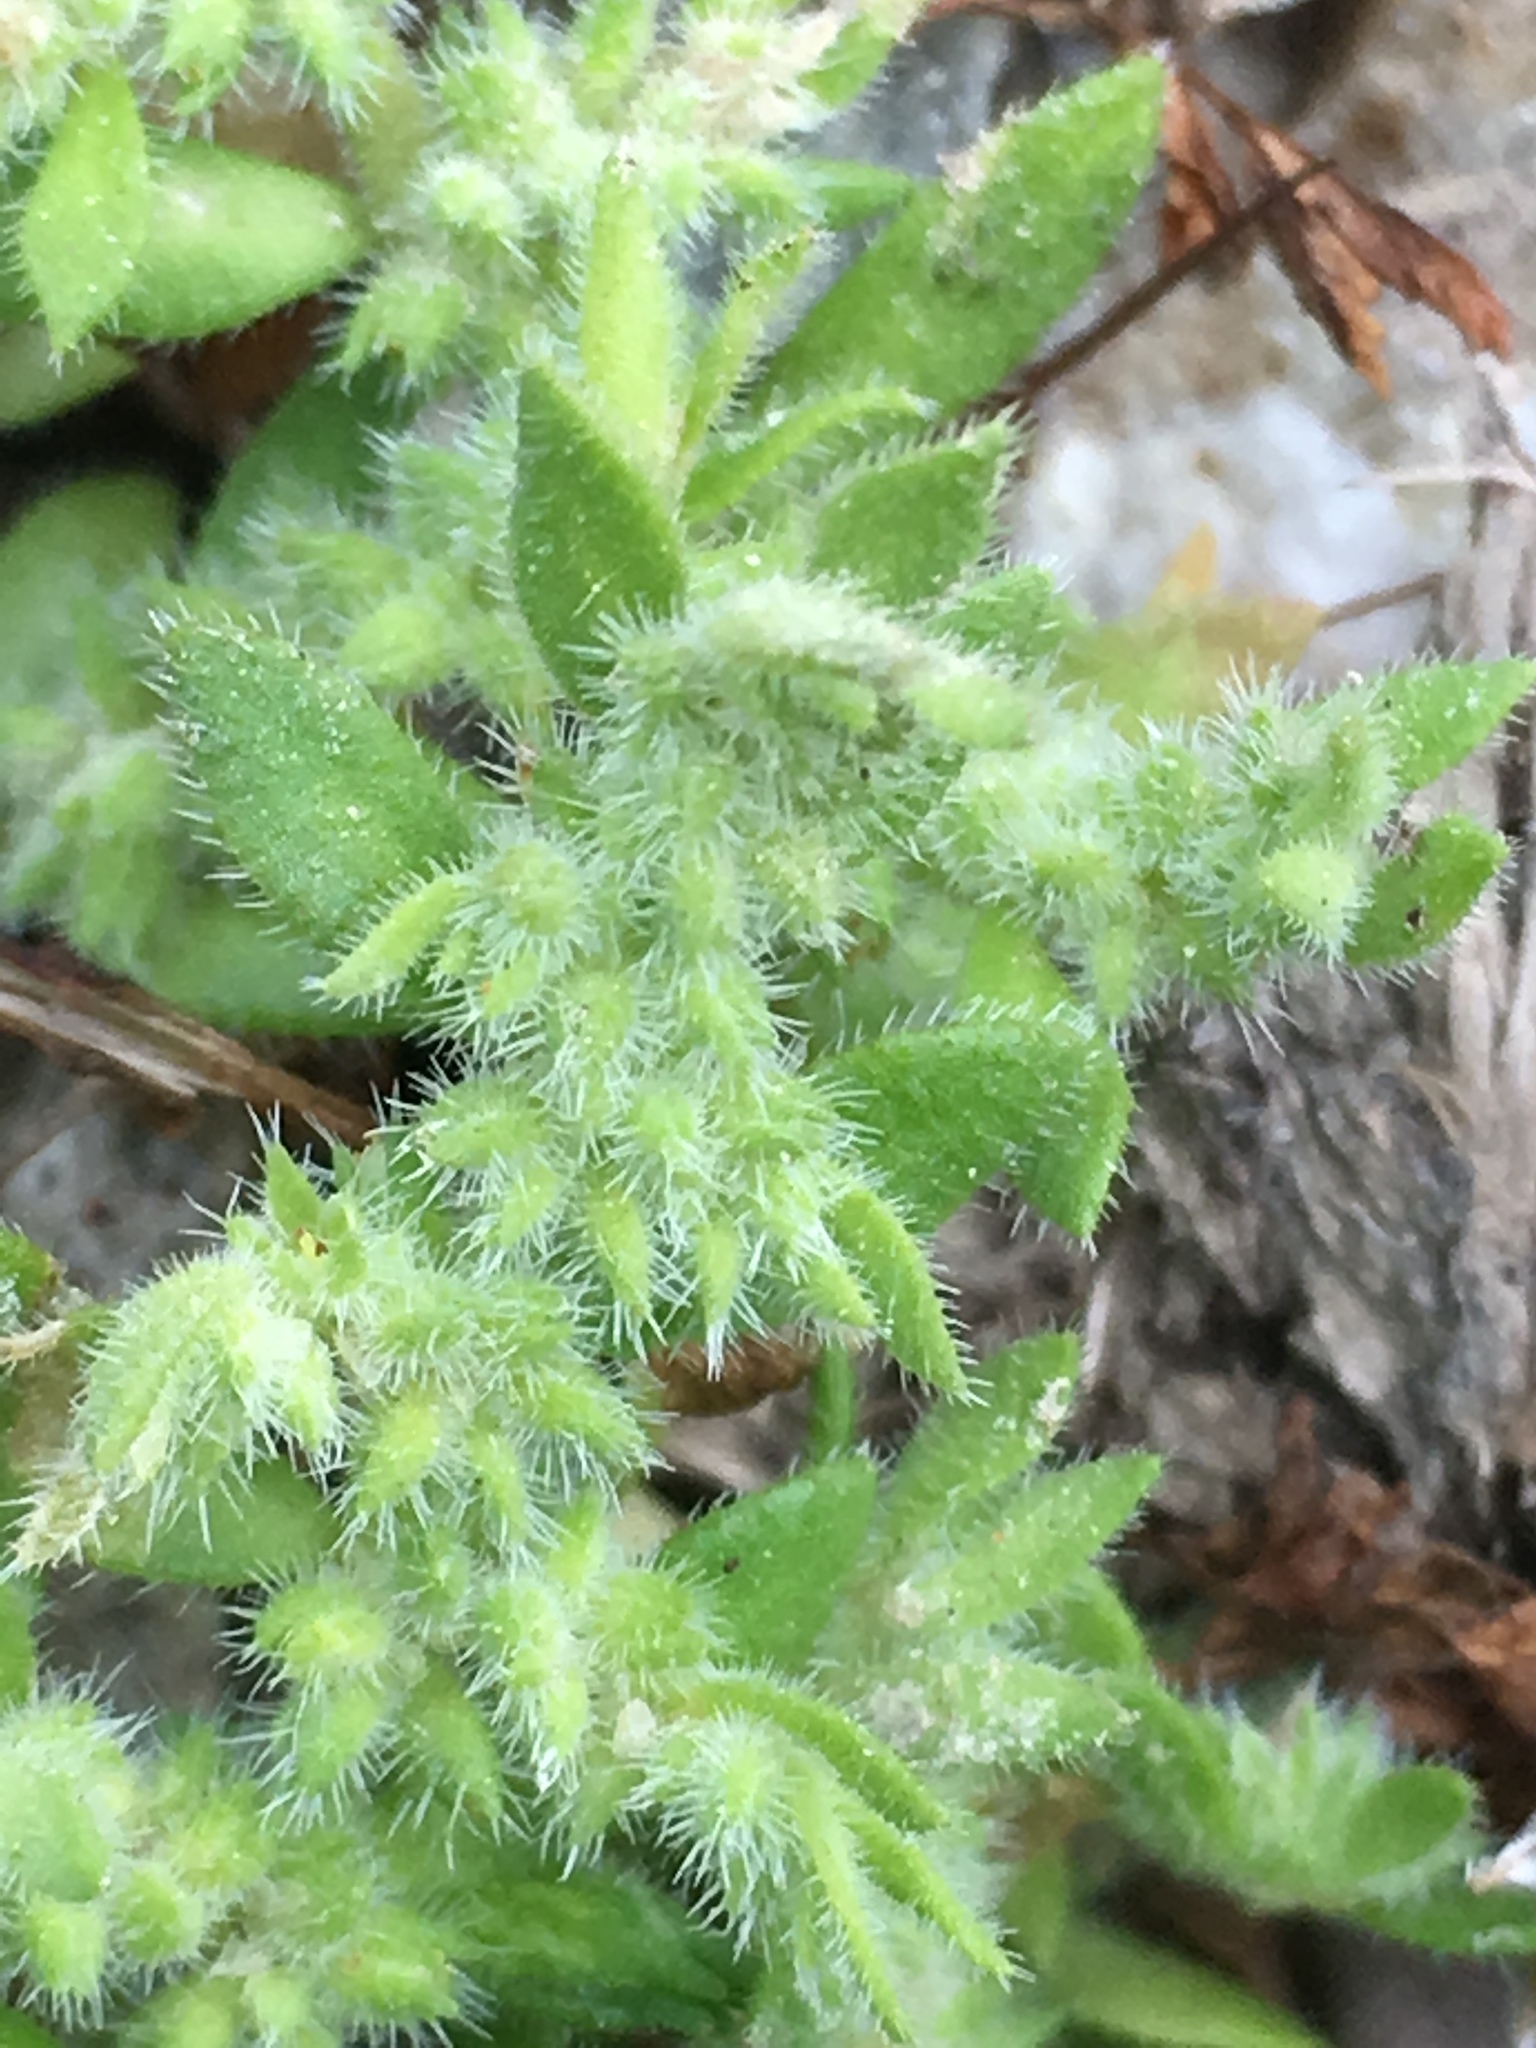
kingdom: Plantae
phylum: Tracheophyta
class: Magnoliopsida
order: Caryophyllales
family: Caryophyllaceae
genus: Herniaria
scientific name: Herniaria hirsuta
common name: Hairy rupturewort
